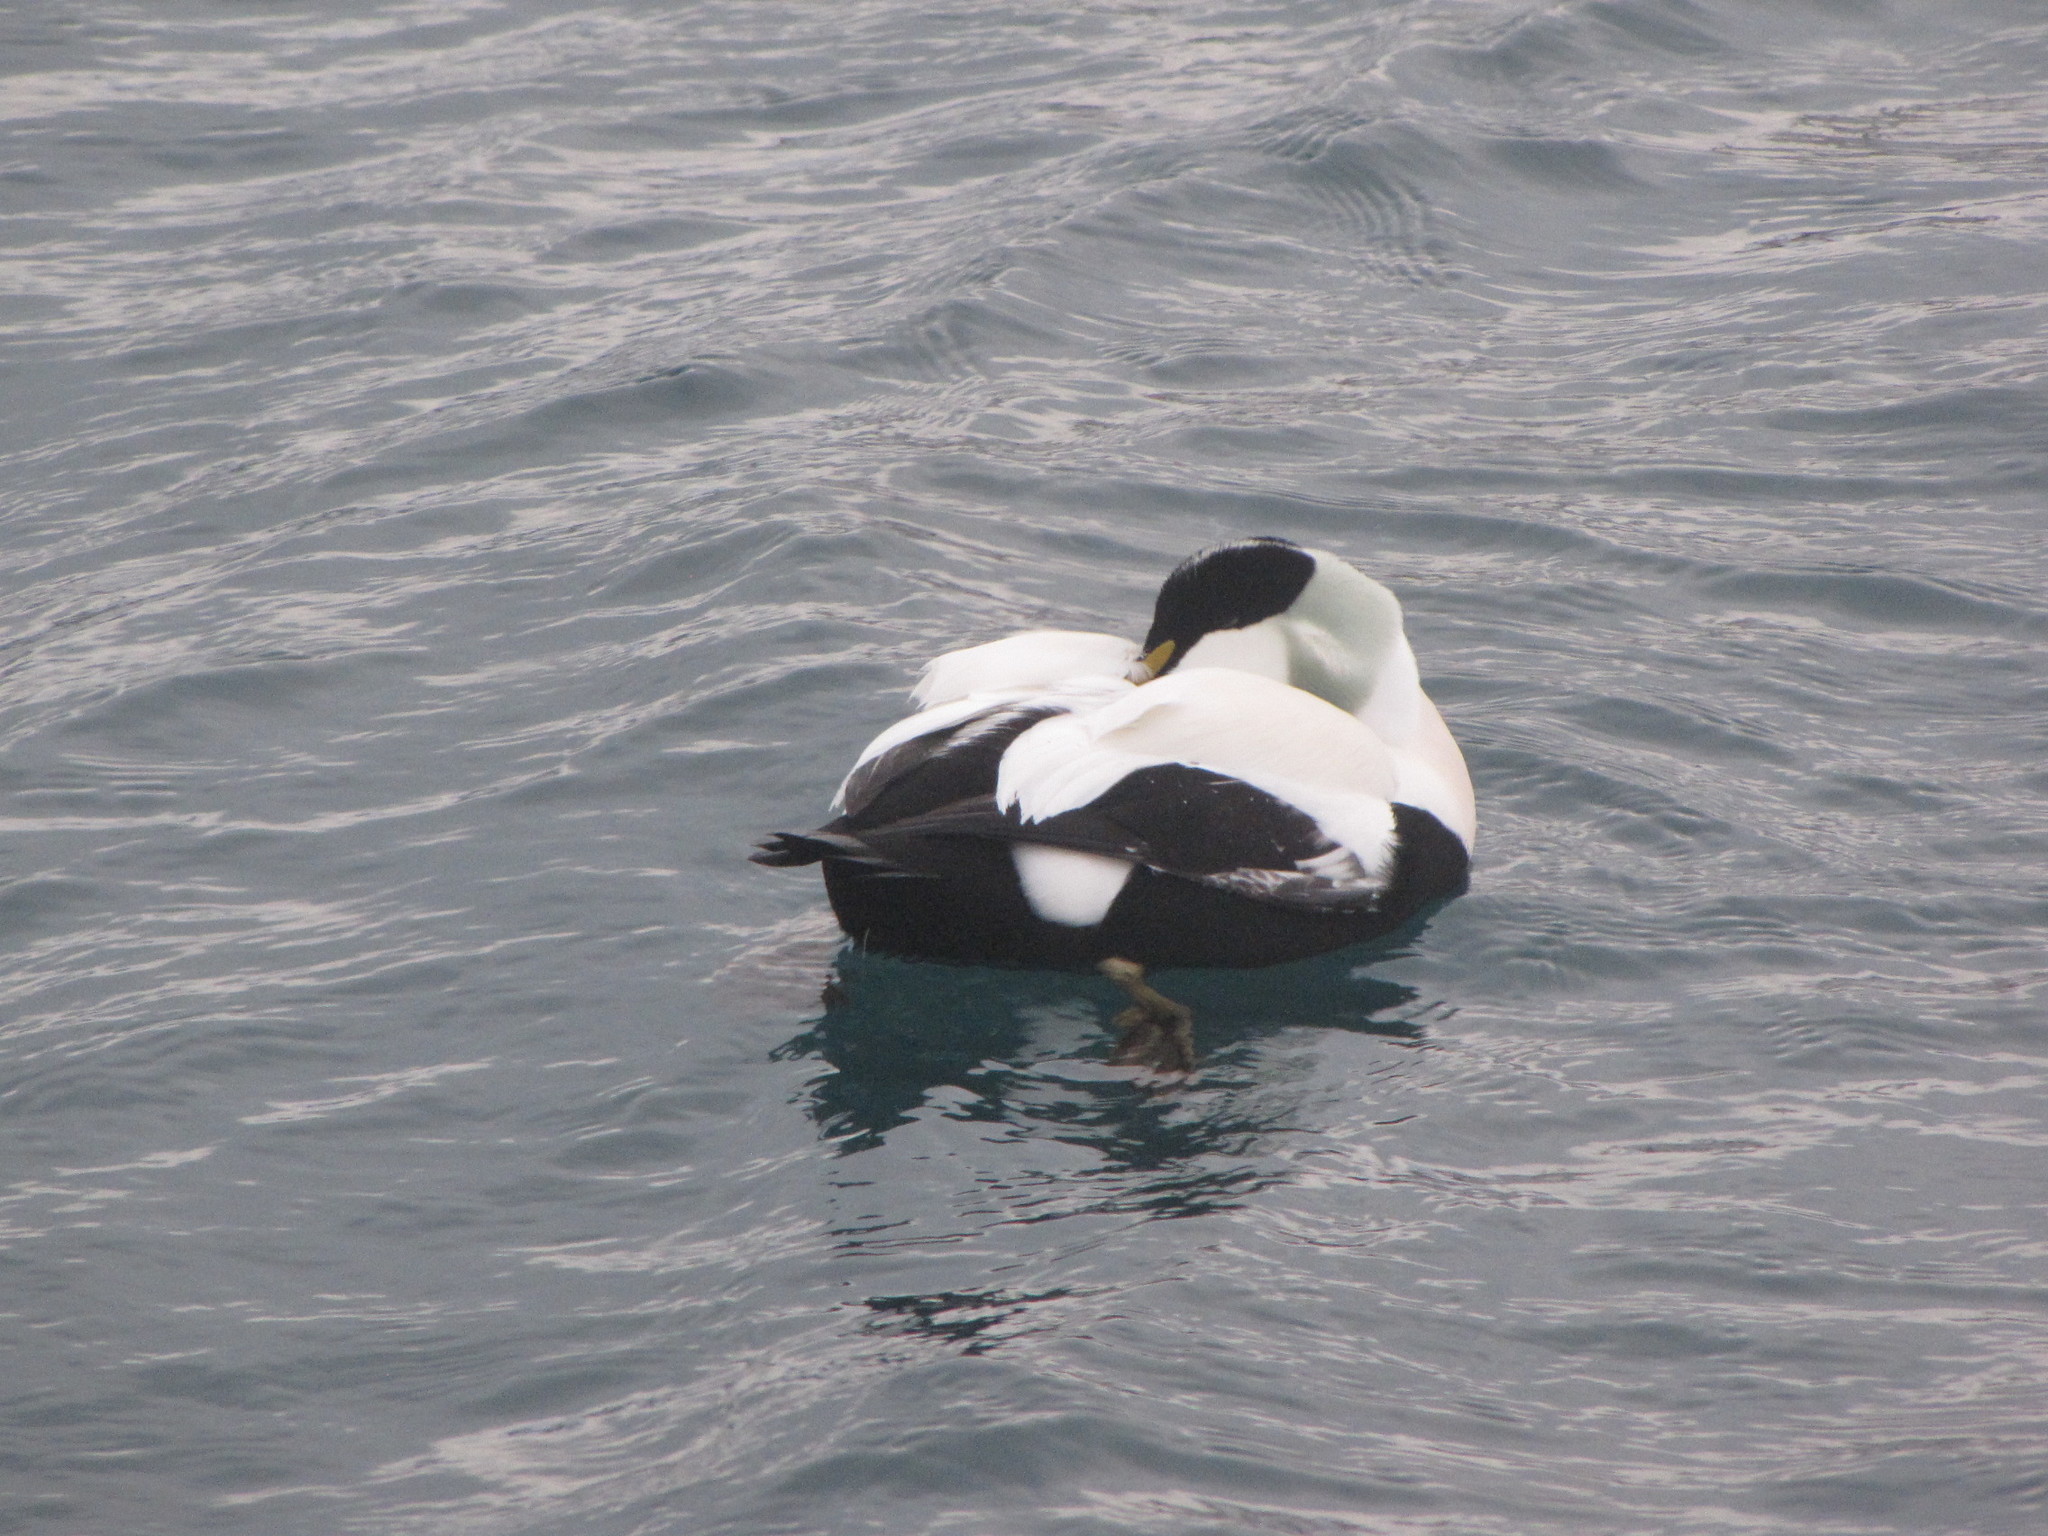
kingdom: Animalia
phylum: Chordata
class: Aves
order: Anseriformes
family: Anatidae
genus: Somateria
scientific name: Somateria mollissima
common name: Common eider
